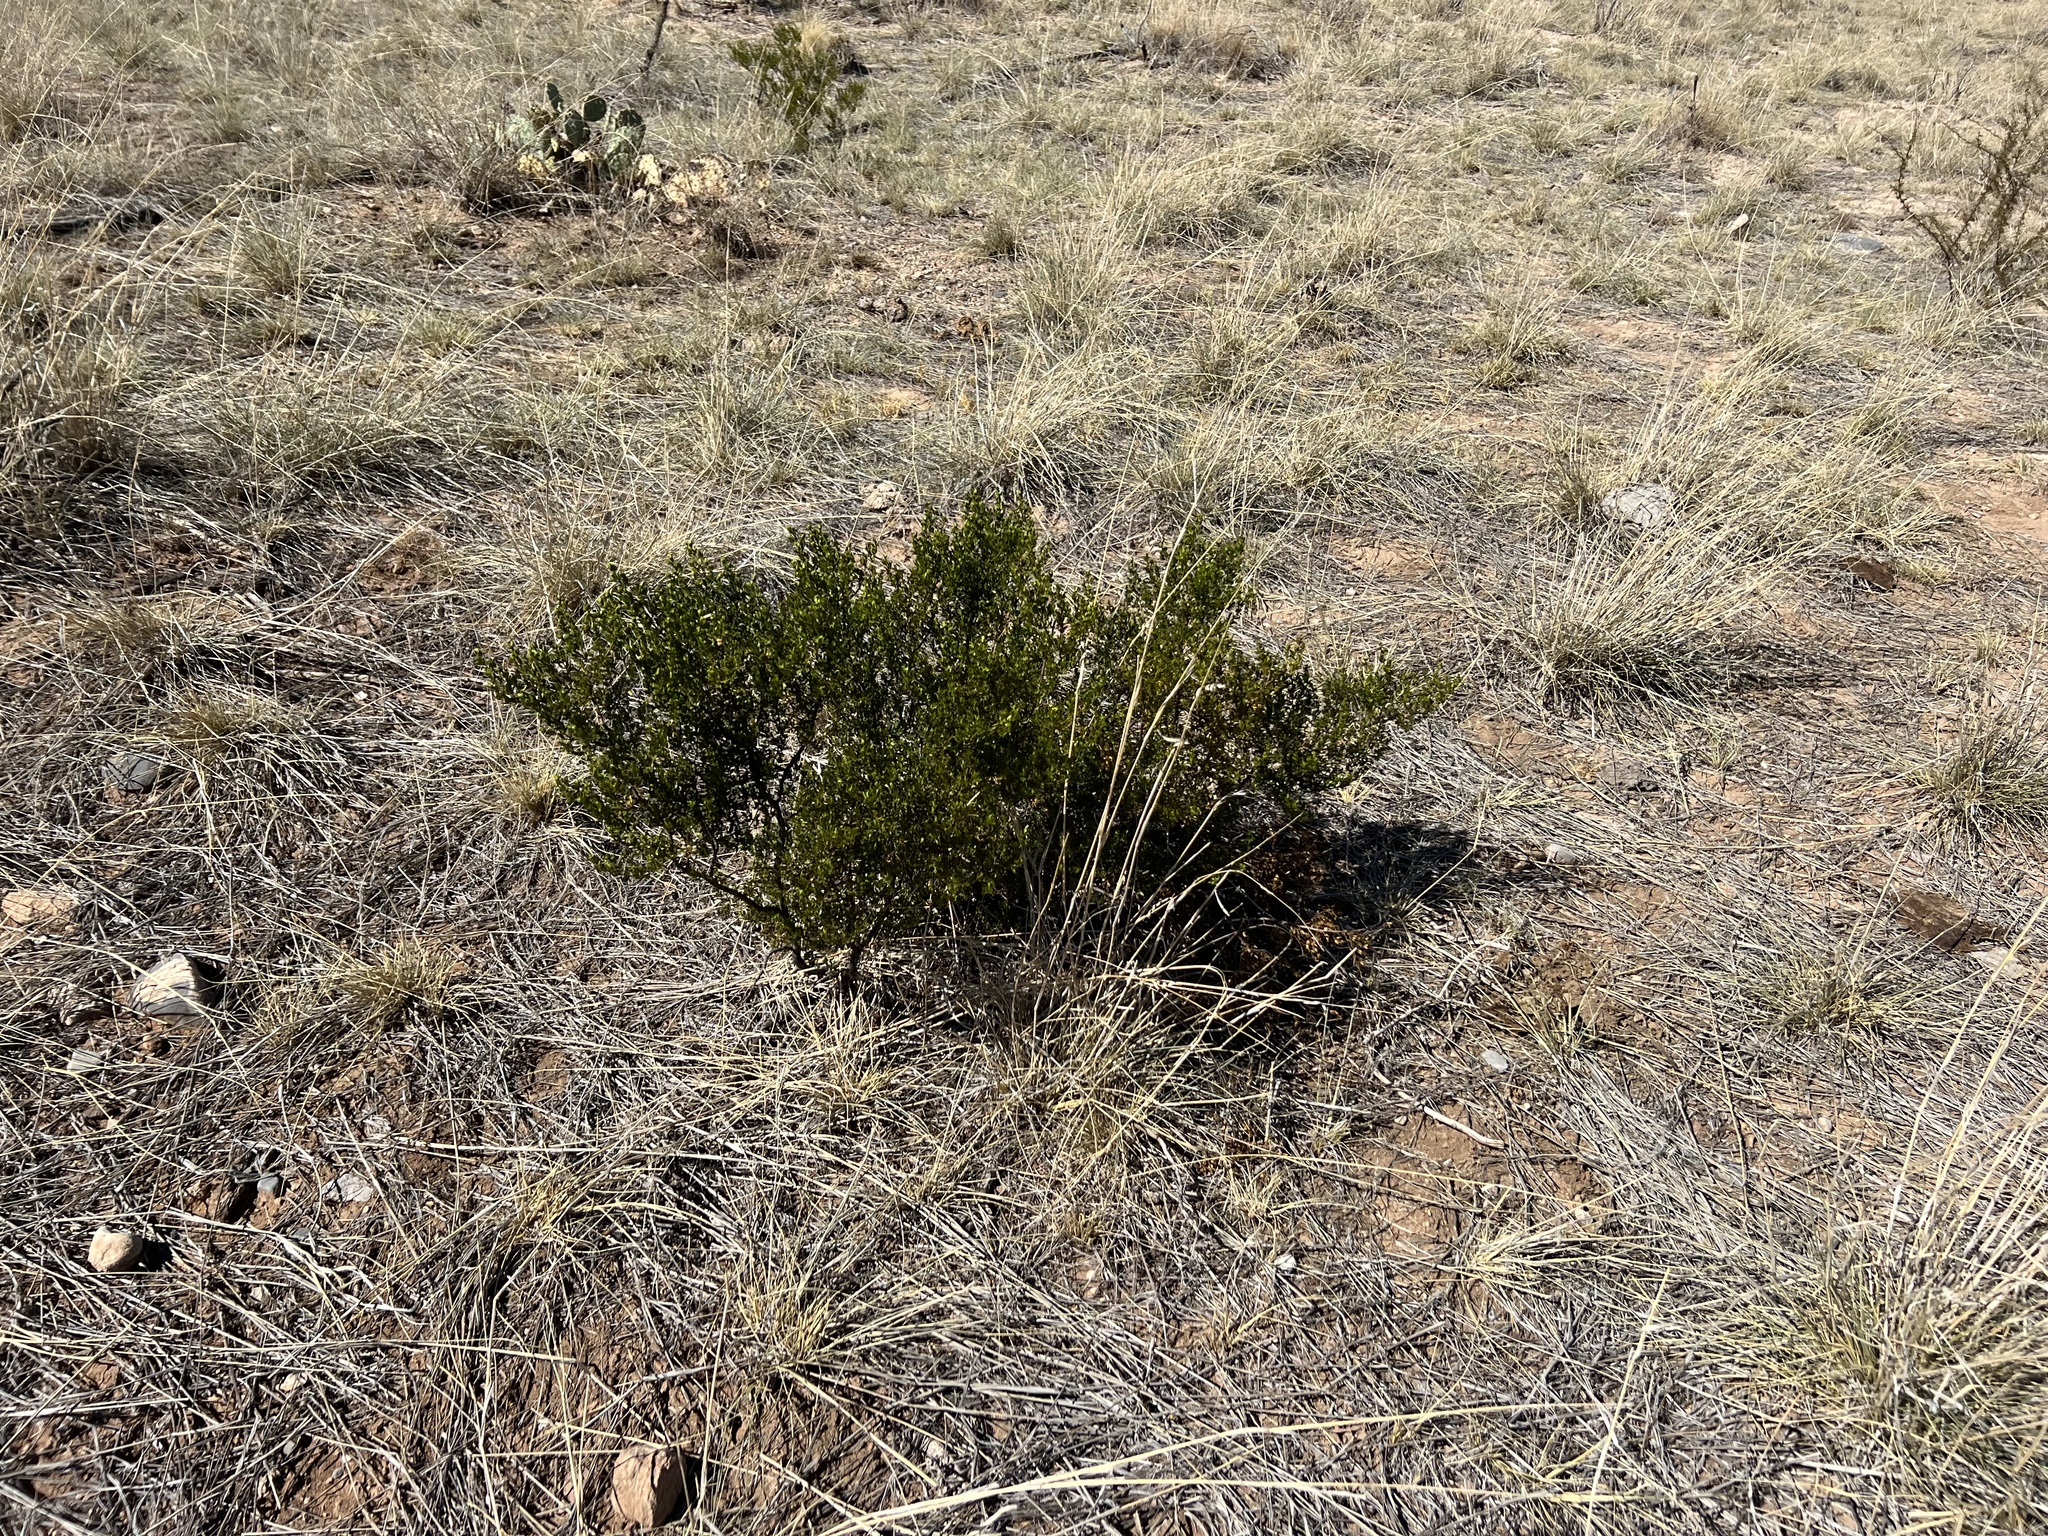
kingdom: Plantae
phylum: Tracheophyta
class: Magnoliopsida
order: Zygophyllales
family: Zygophyllaceae
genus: Larrea
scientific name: Larrea tridentata
